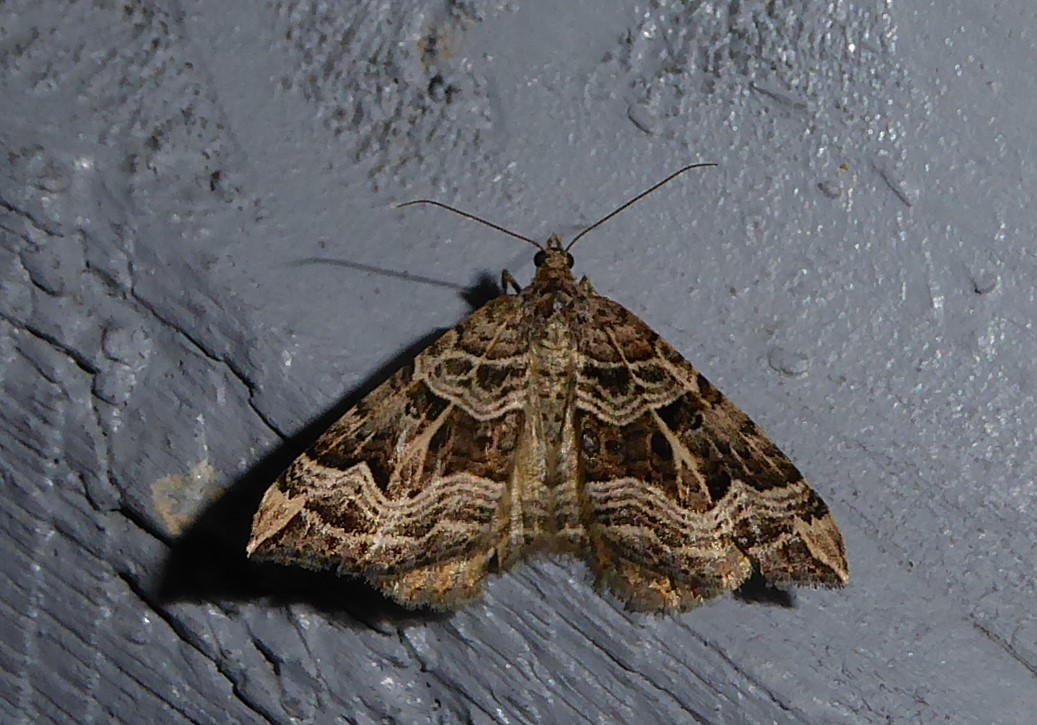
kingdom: Animalia
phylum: Arthropoda
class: Insecta
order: Lepidoptera
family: Geometridae
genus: Xanthorhoe
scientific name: Xanthorhoe semifissata
